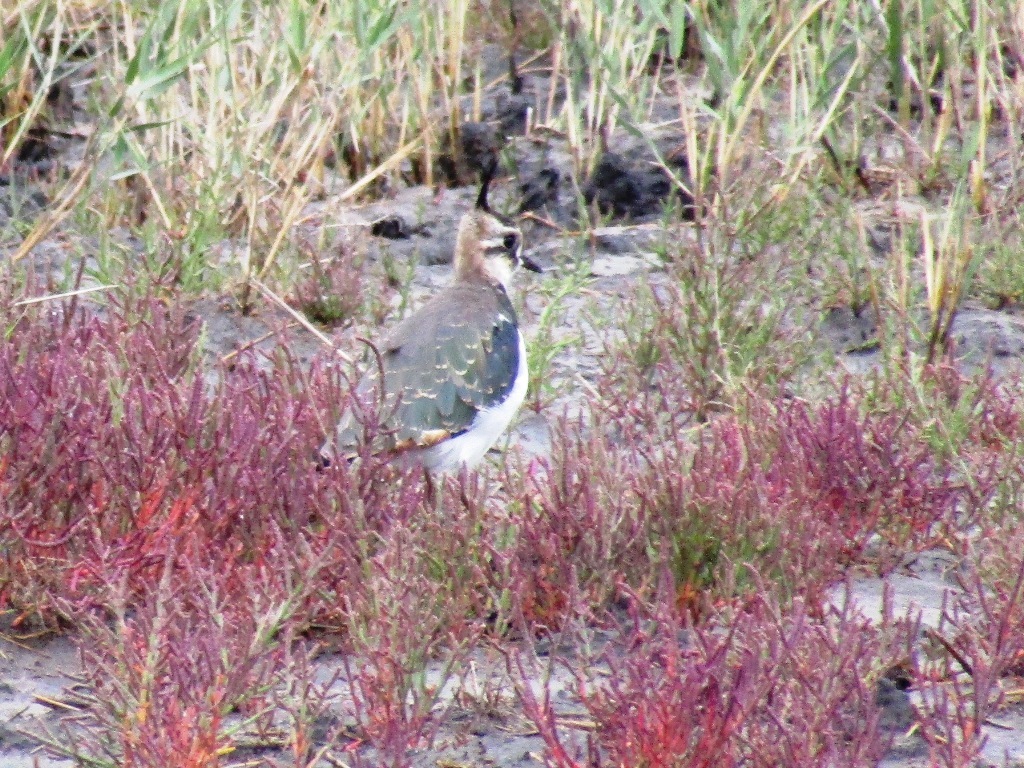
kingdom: Animalia
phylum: Chordata
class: Aves
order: Charadriiformes
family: Charadriidae
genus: Vanellus
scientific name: Vanellus vanellus
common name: Northern lapwing
